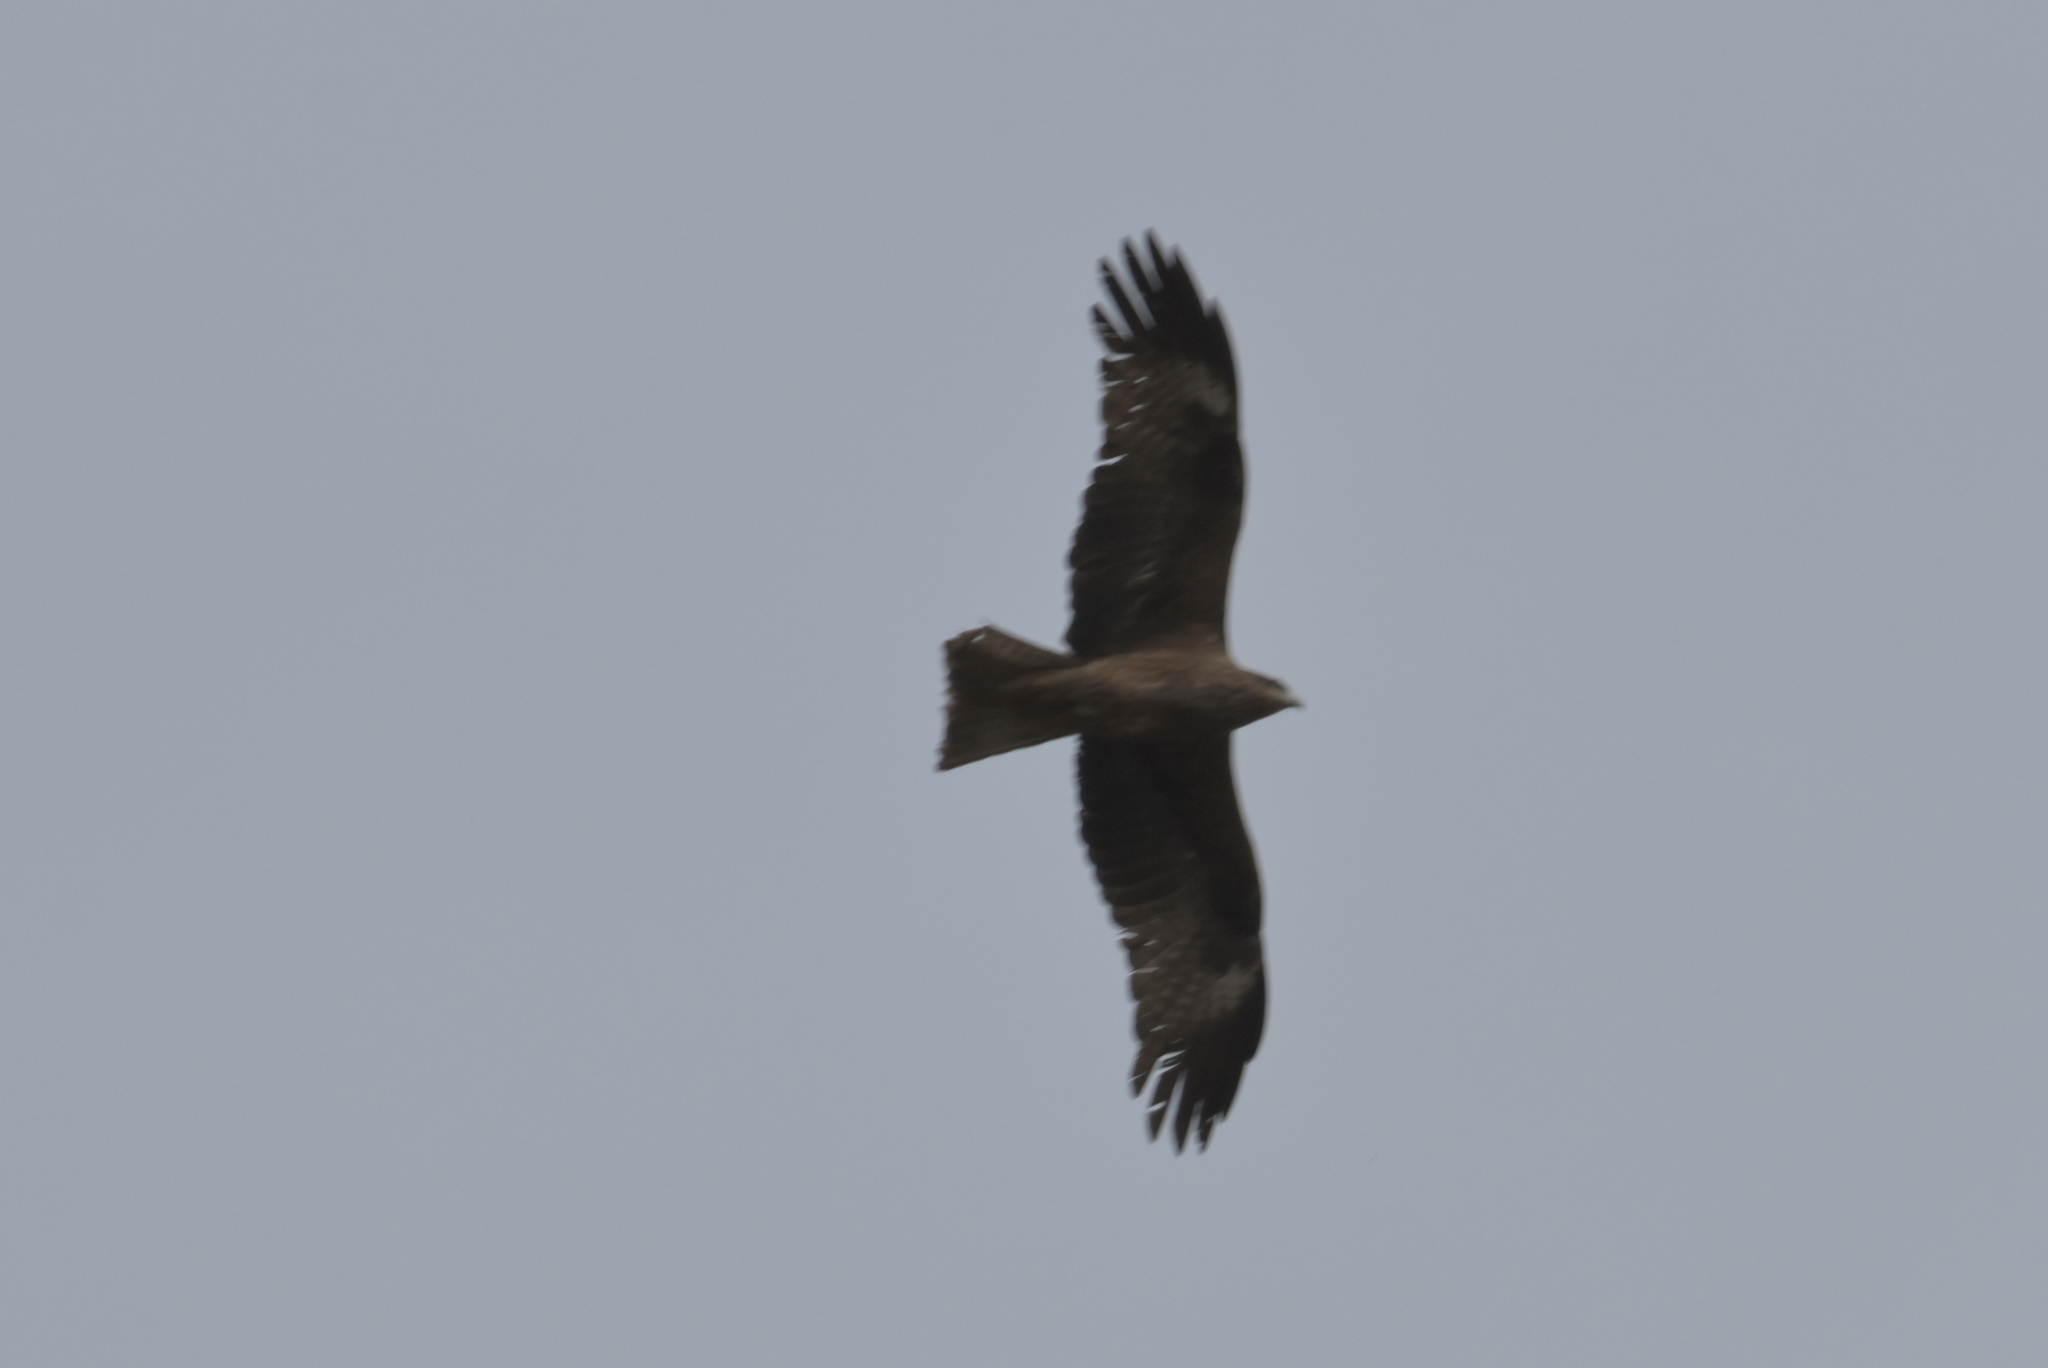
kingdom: Animalia
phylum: Chordata
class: Aves
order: Accipitriformes
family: Accipitridae
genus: Milvus
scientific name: Milvus migrans
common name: Black kite
